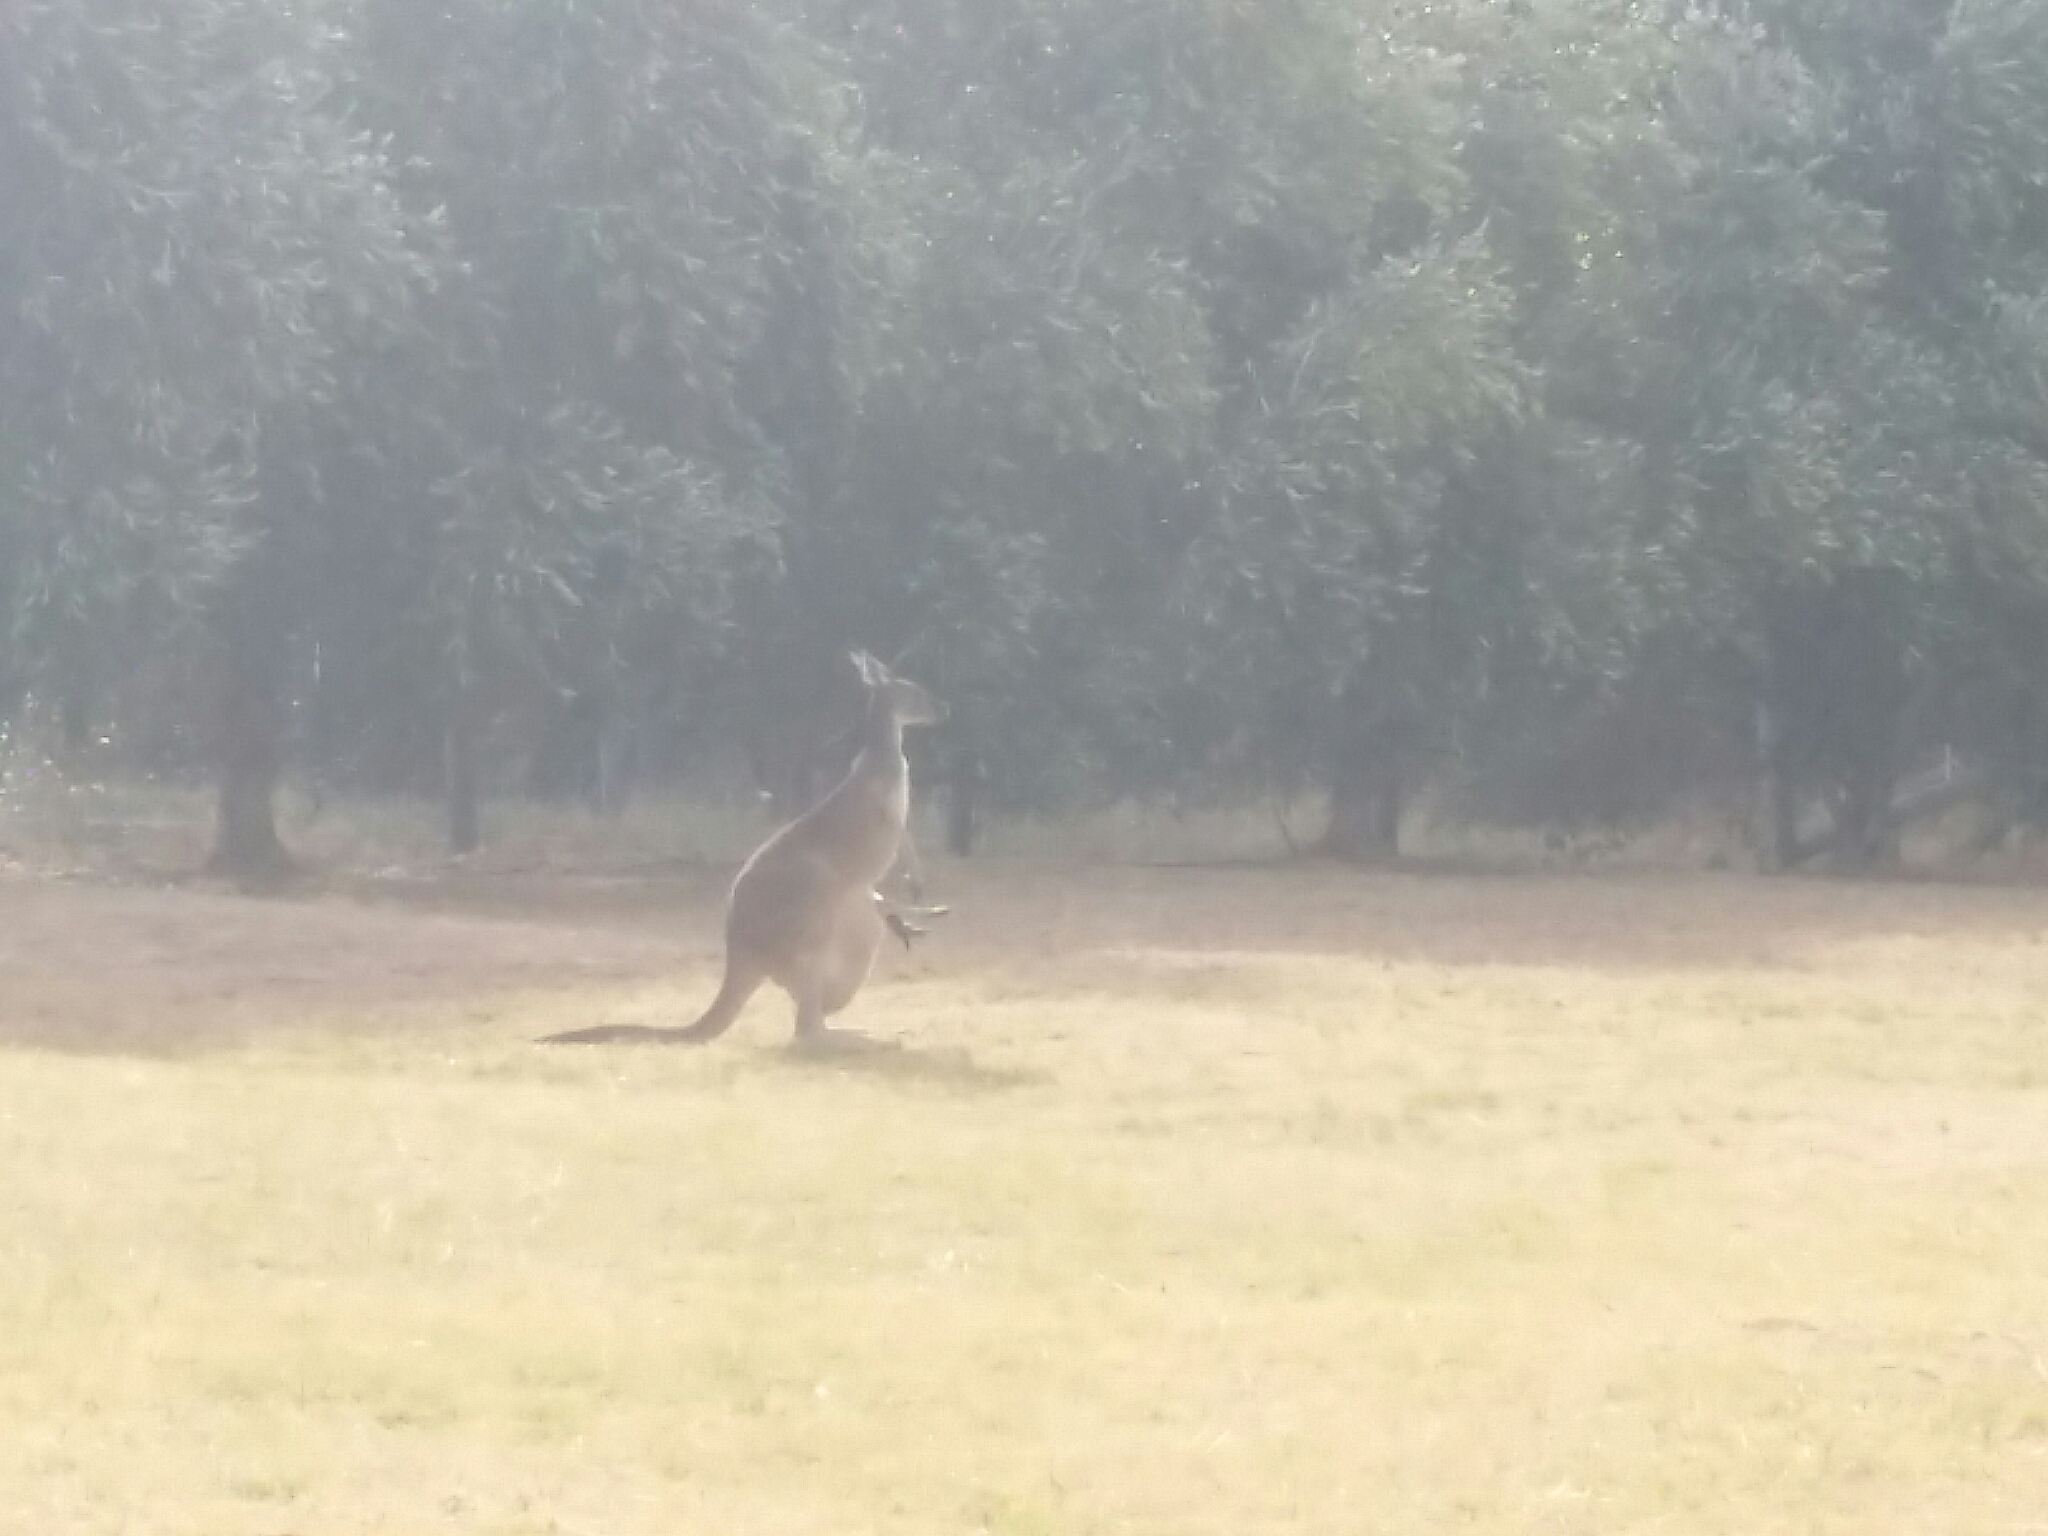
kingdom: Animalia
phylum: Chordata
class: Mammalia
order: Diprotodontia
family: Macropodidae
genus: Macropus
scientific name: Macropus fuliginosus
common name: Western grey kangaroo
